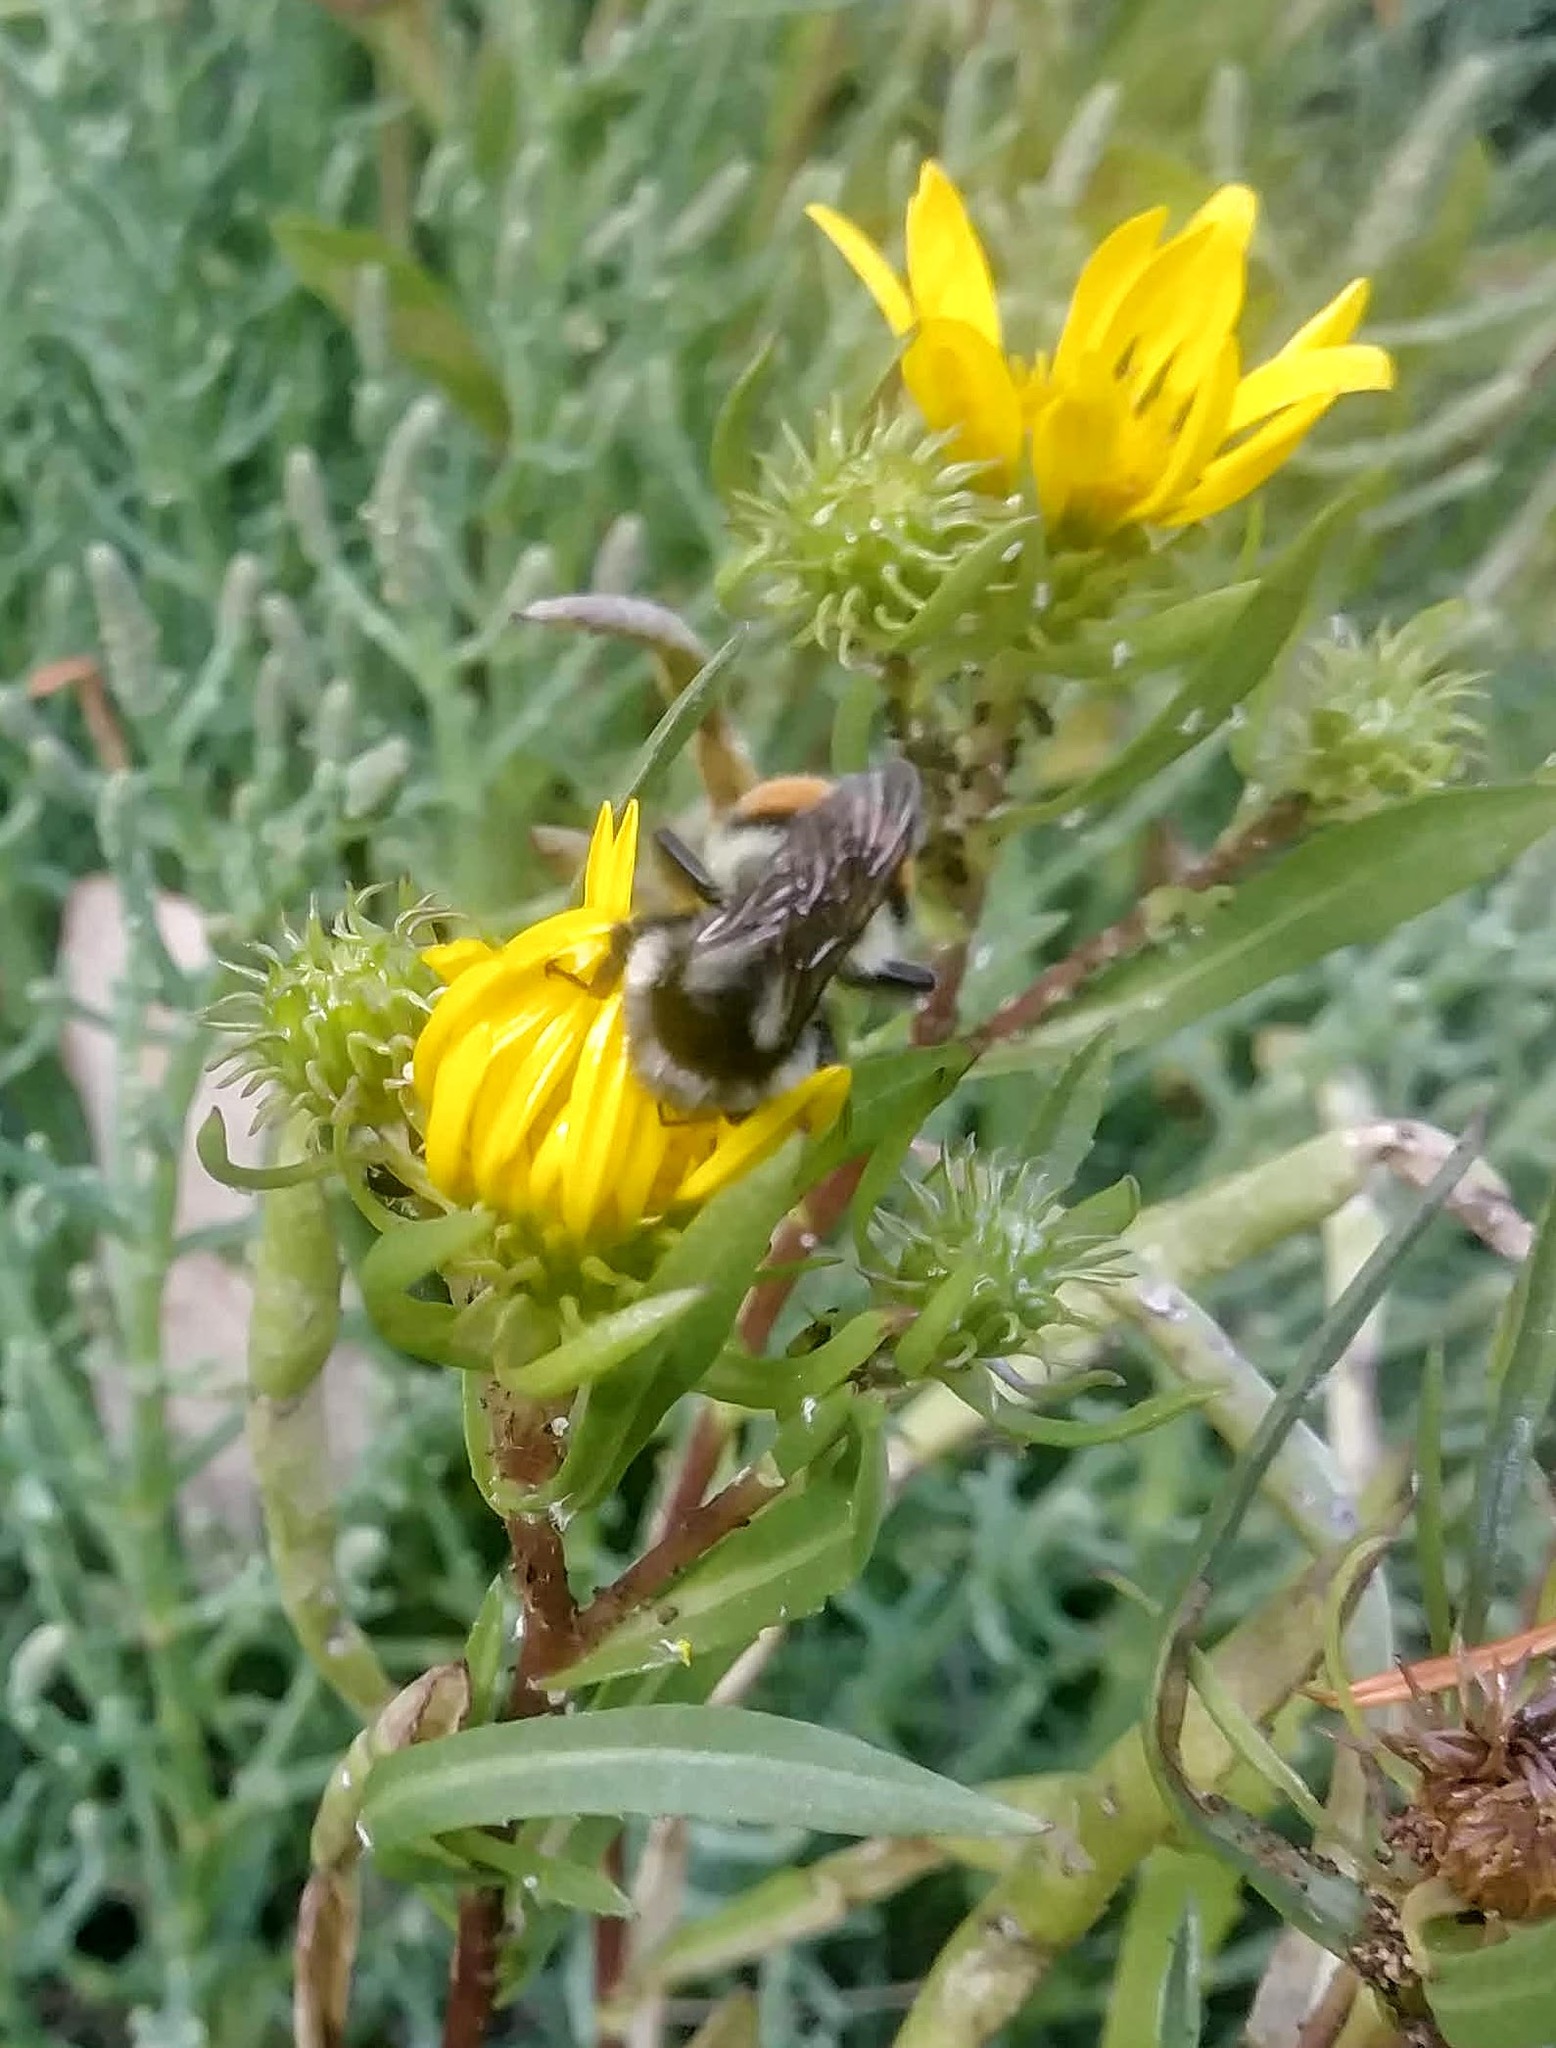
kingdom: Animalia
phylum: Arthropoda
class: Insecta
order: Hymenoptera
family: Apidae
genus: Bombus
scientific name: Bombus vancouverensis
